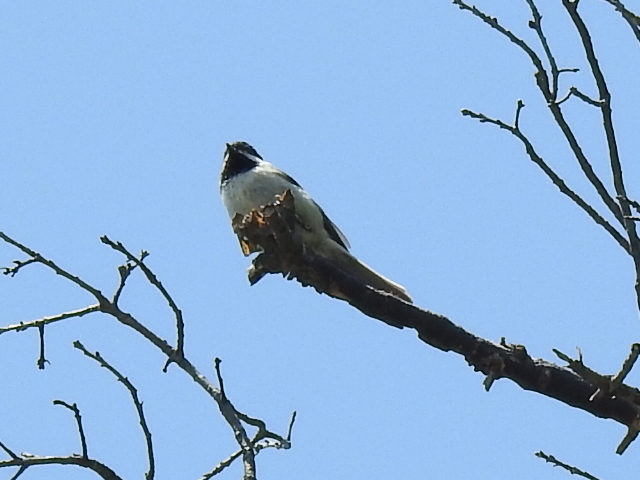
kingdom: Animalia
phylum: Chordata
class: Aves
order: Passeriformes
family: Paridae
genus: Poecile
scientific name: Poecile carolinensis
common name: Carolina chickadee
